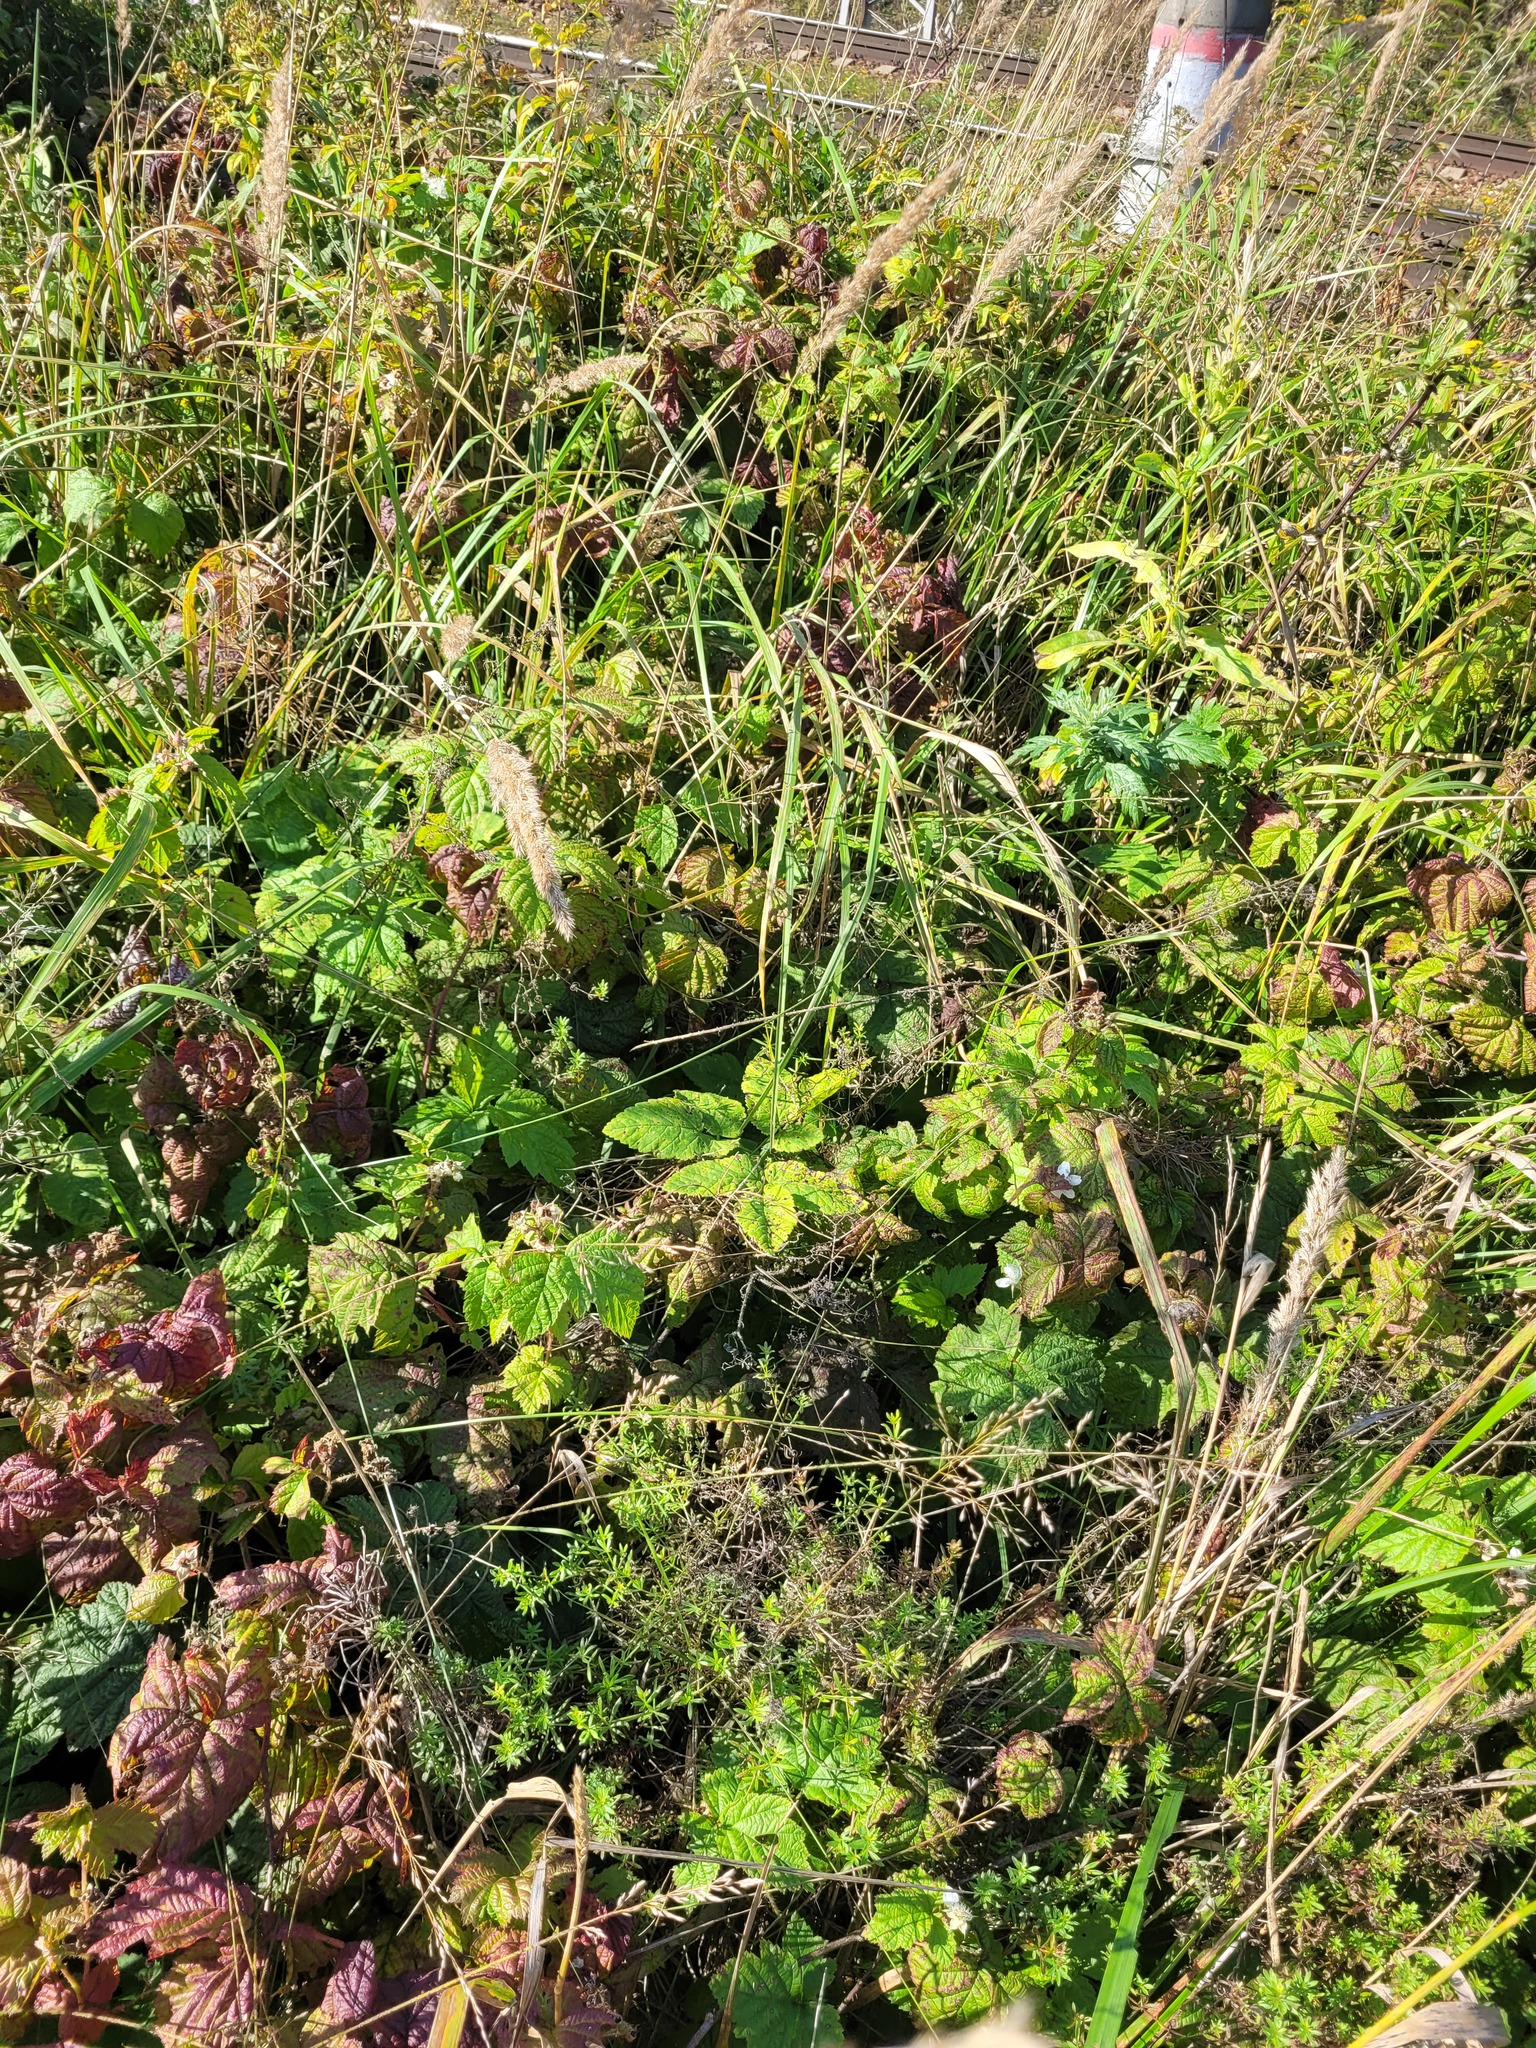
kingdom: Plantae
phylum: Tracheophyta
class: Magnoliopsida
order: Gentianales
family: Rubiaceae
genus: Galium
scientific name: Galium mollugo
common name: Hedge bedstraw
